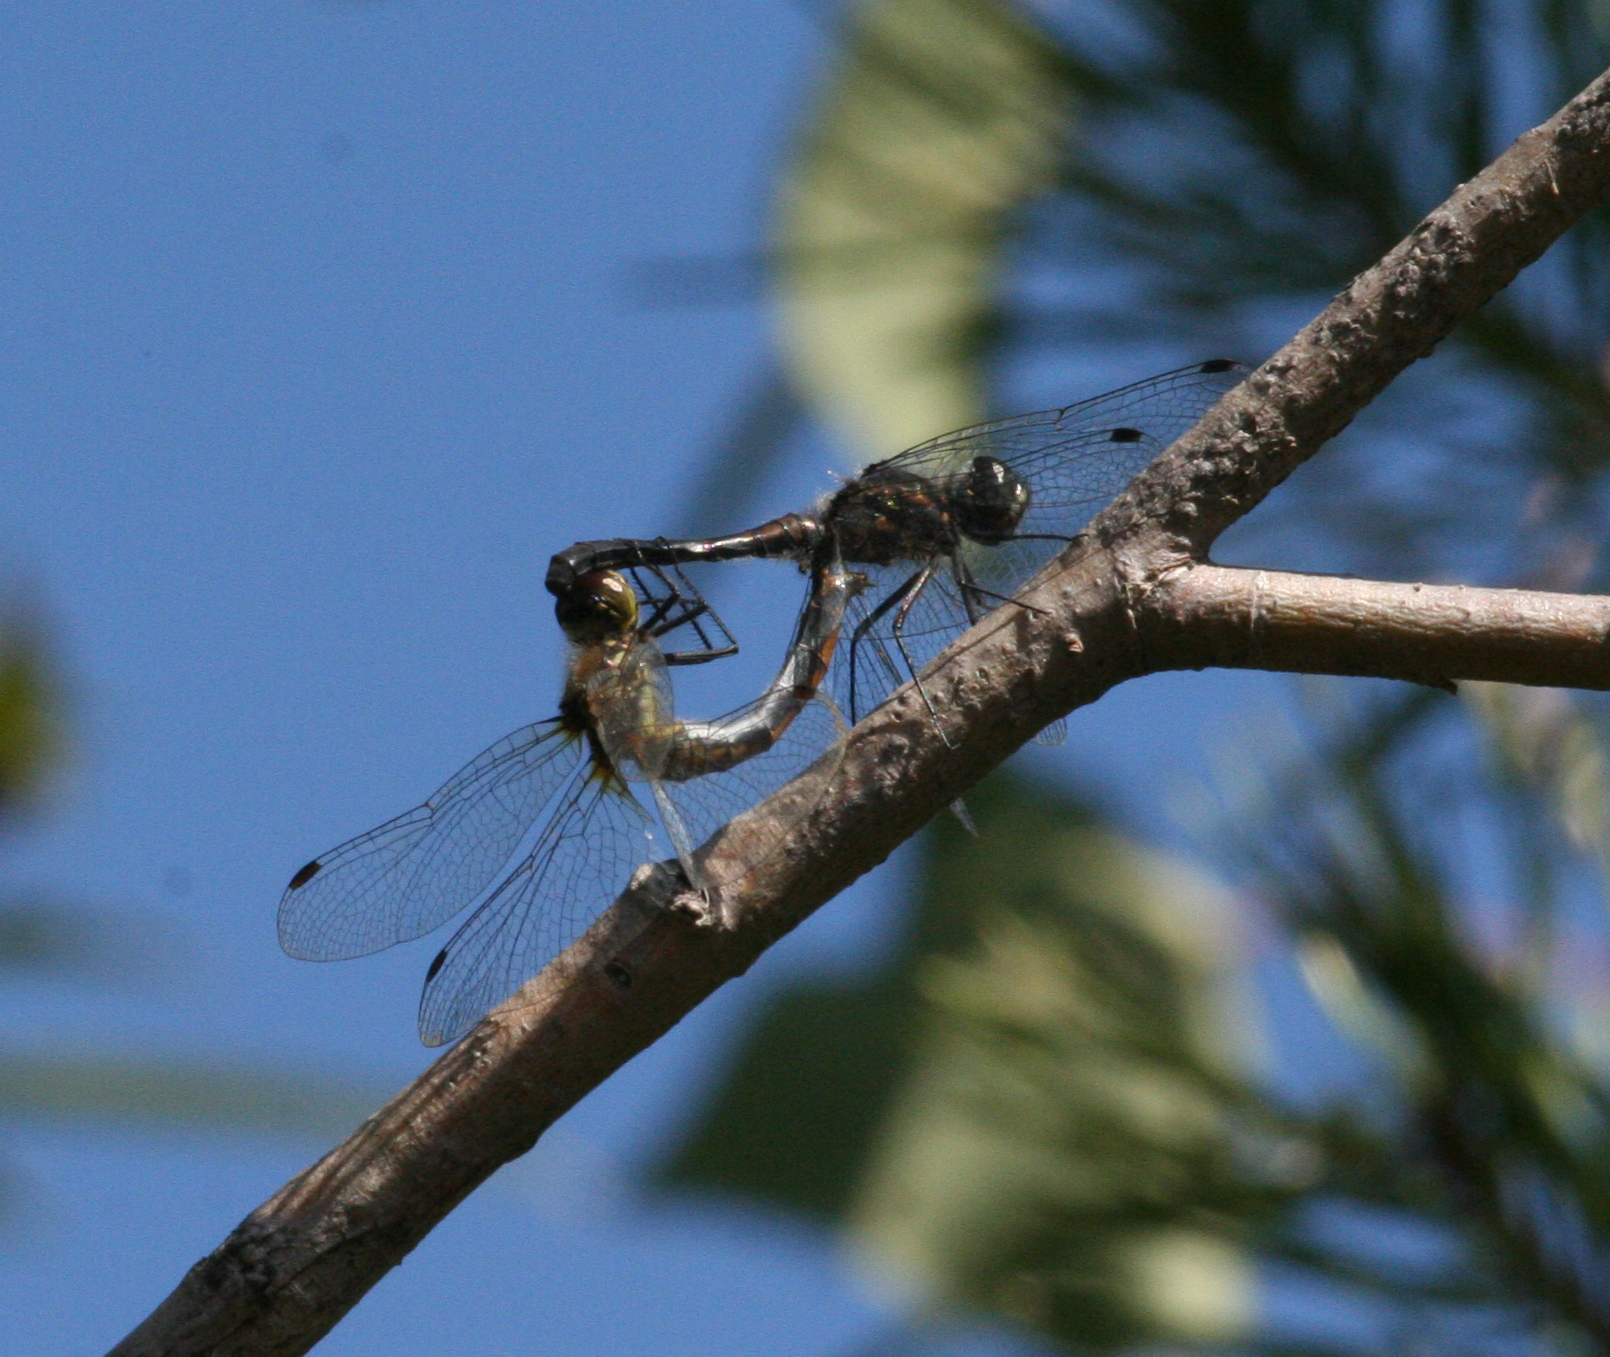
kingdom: Animalia
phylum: Arthropoda
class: Insecta
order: Odonata
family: Libellulidae
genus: Sympetrum
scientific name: Sympetrum danae
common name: Black darter
